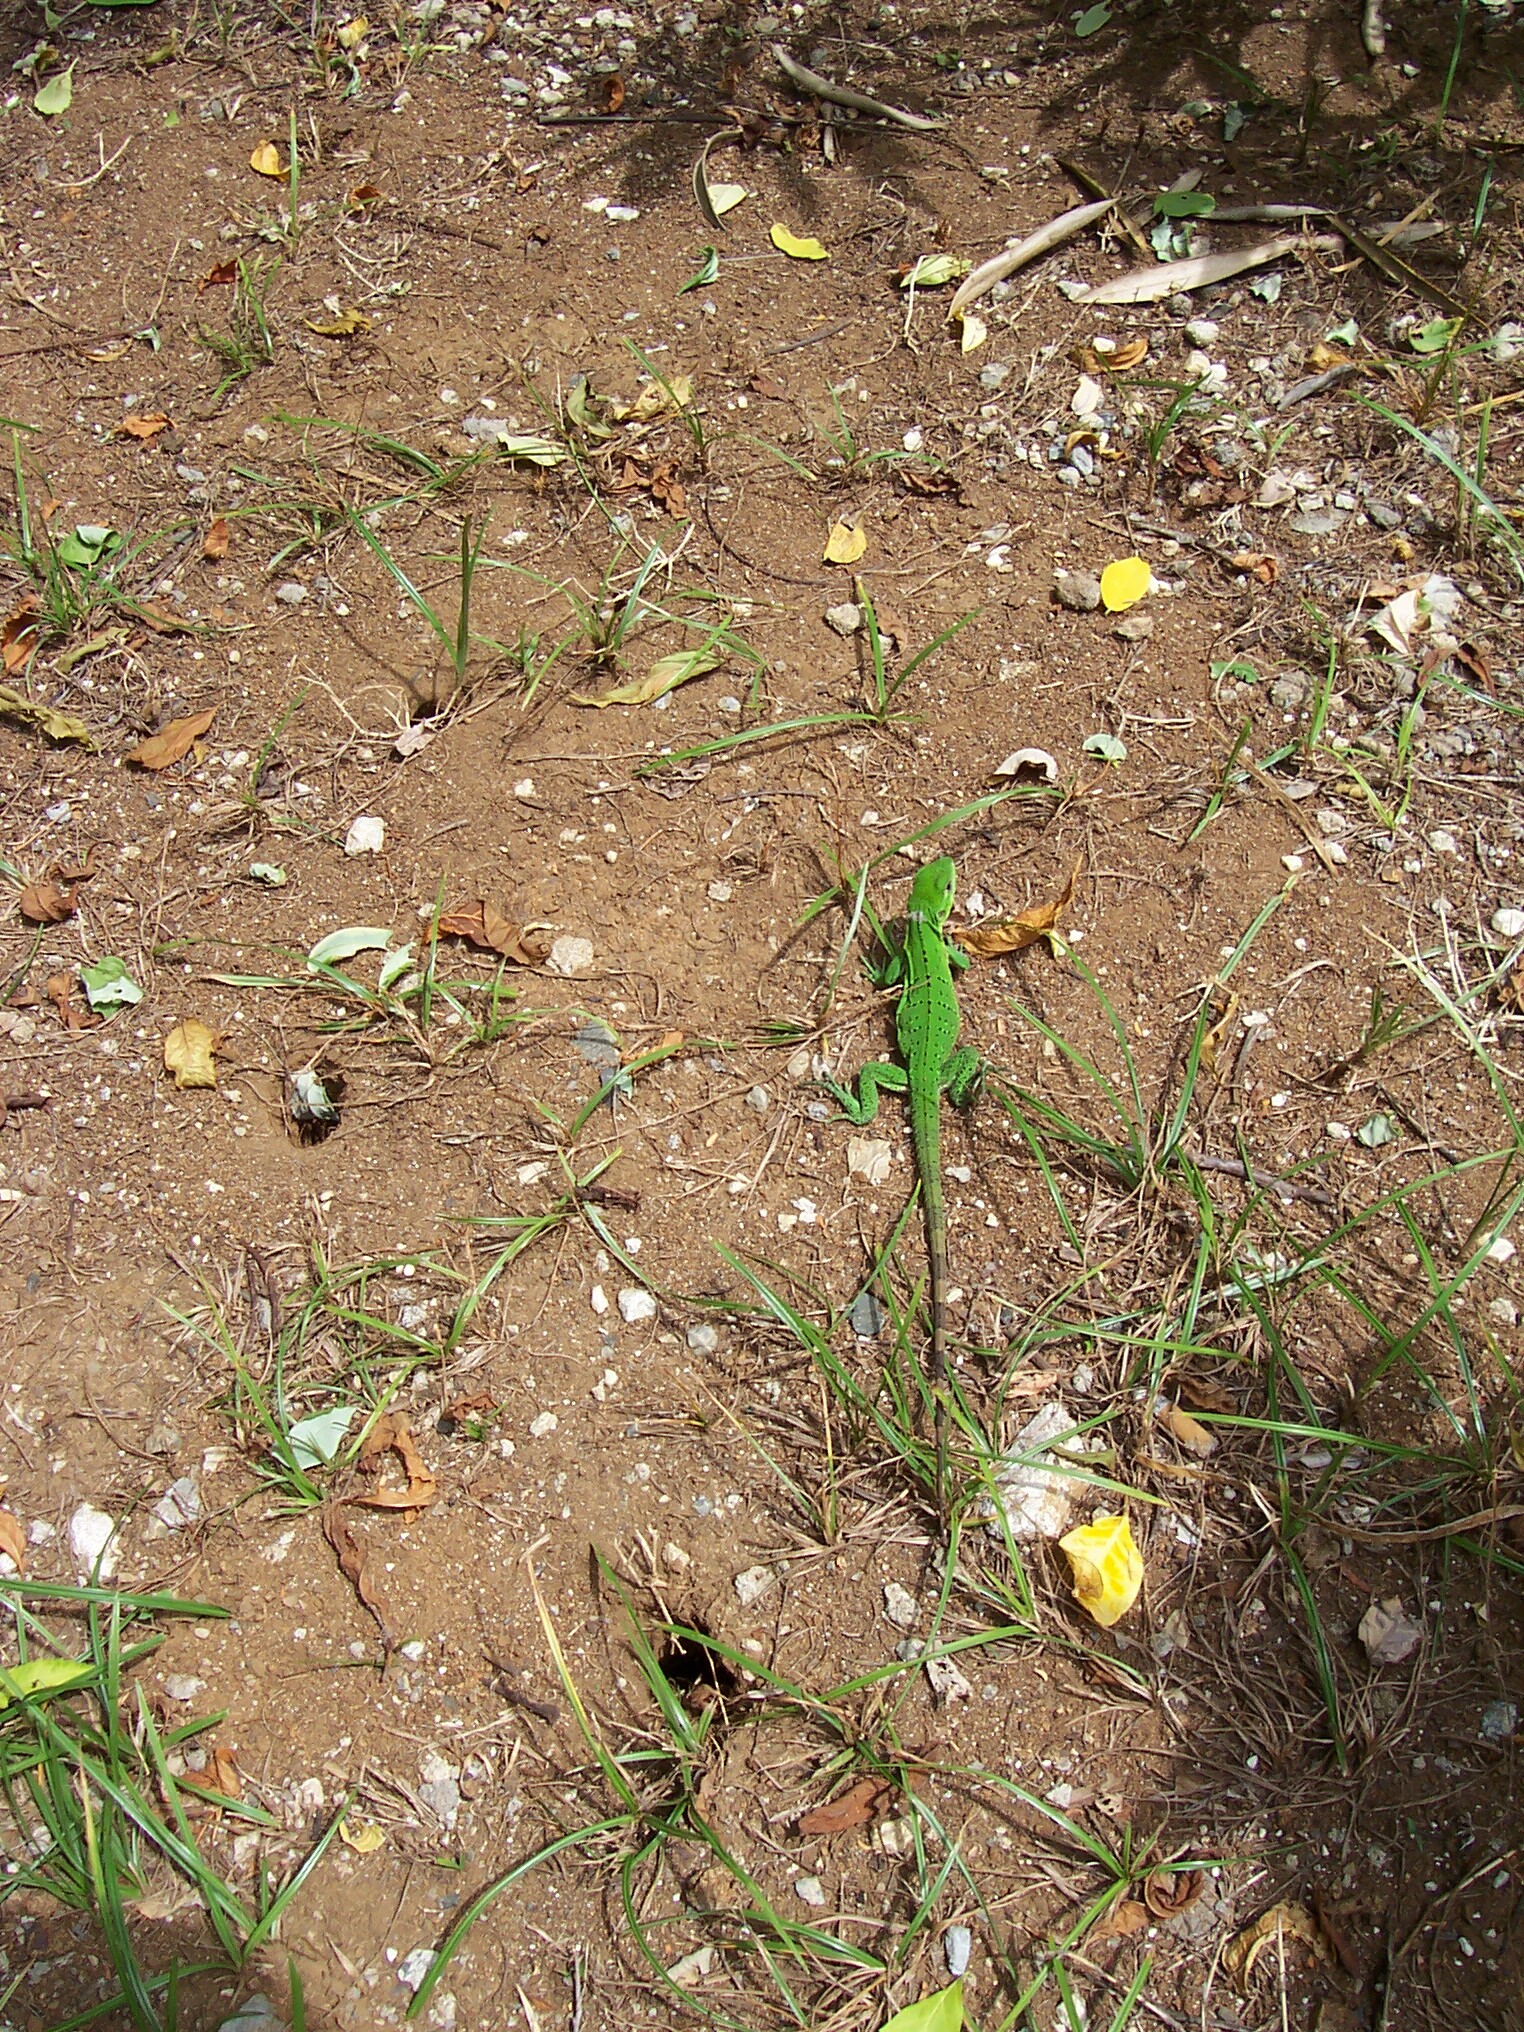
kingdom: Animalia
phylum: Chordata
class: Squamata
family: Iguanidae
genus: Ctenosaura
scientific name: Ctenosaura similis
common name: Black spiny-tailed iguana
